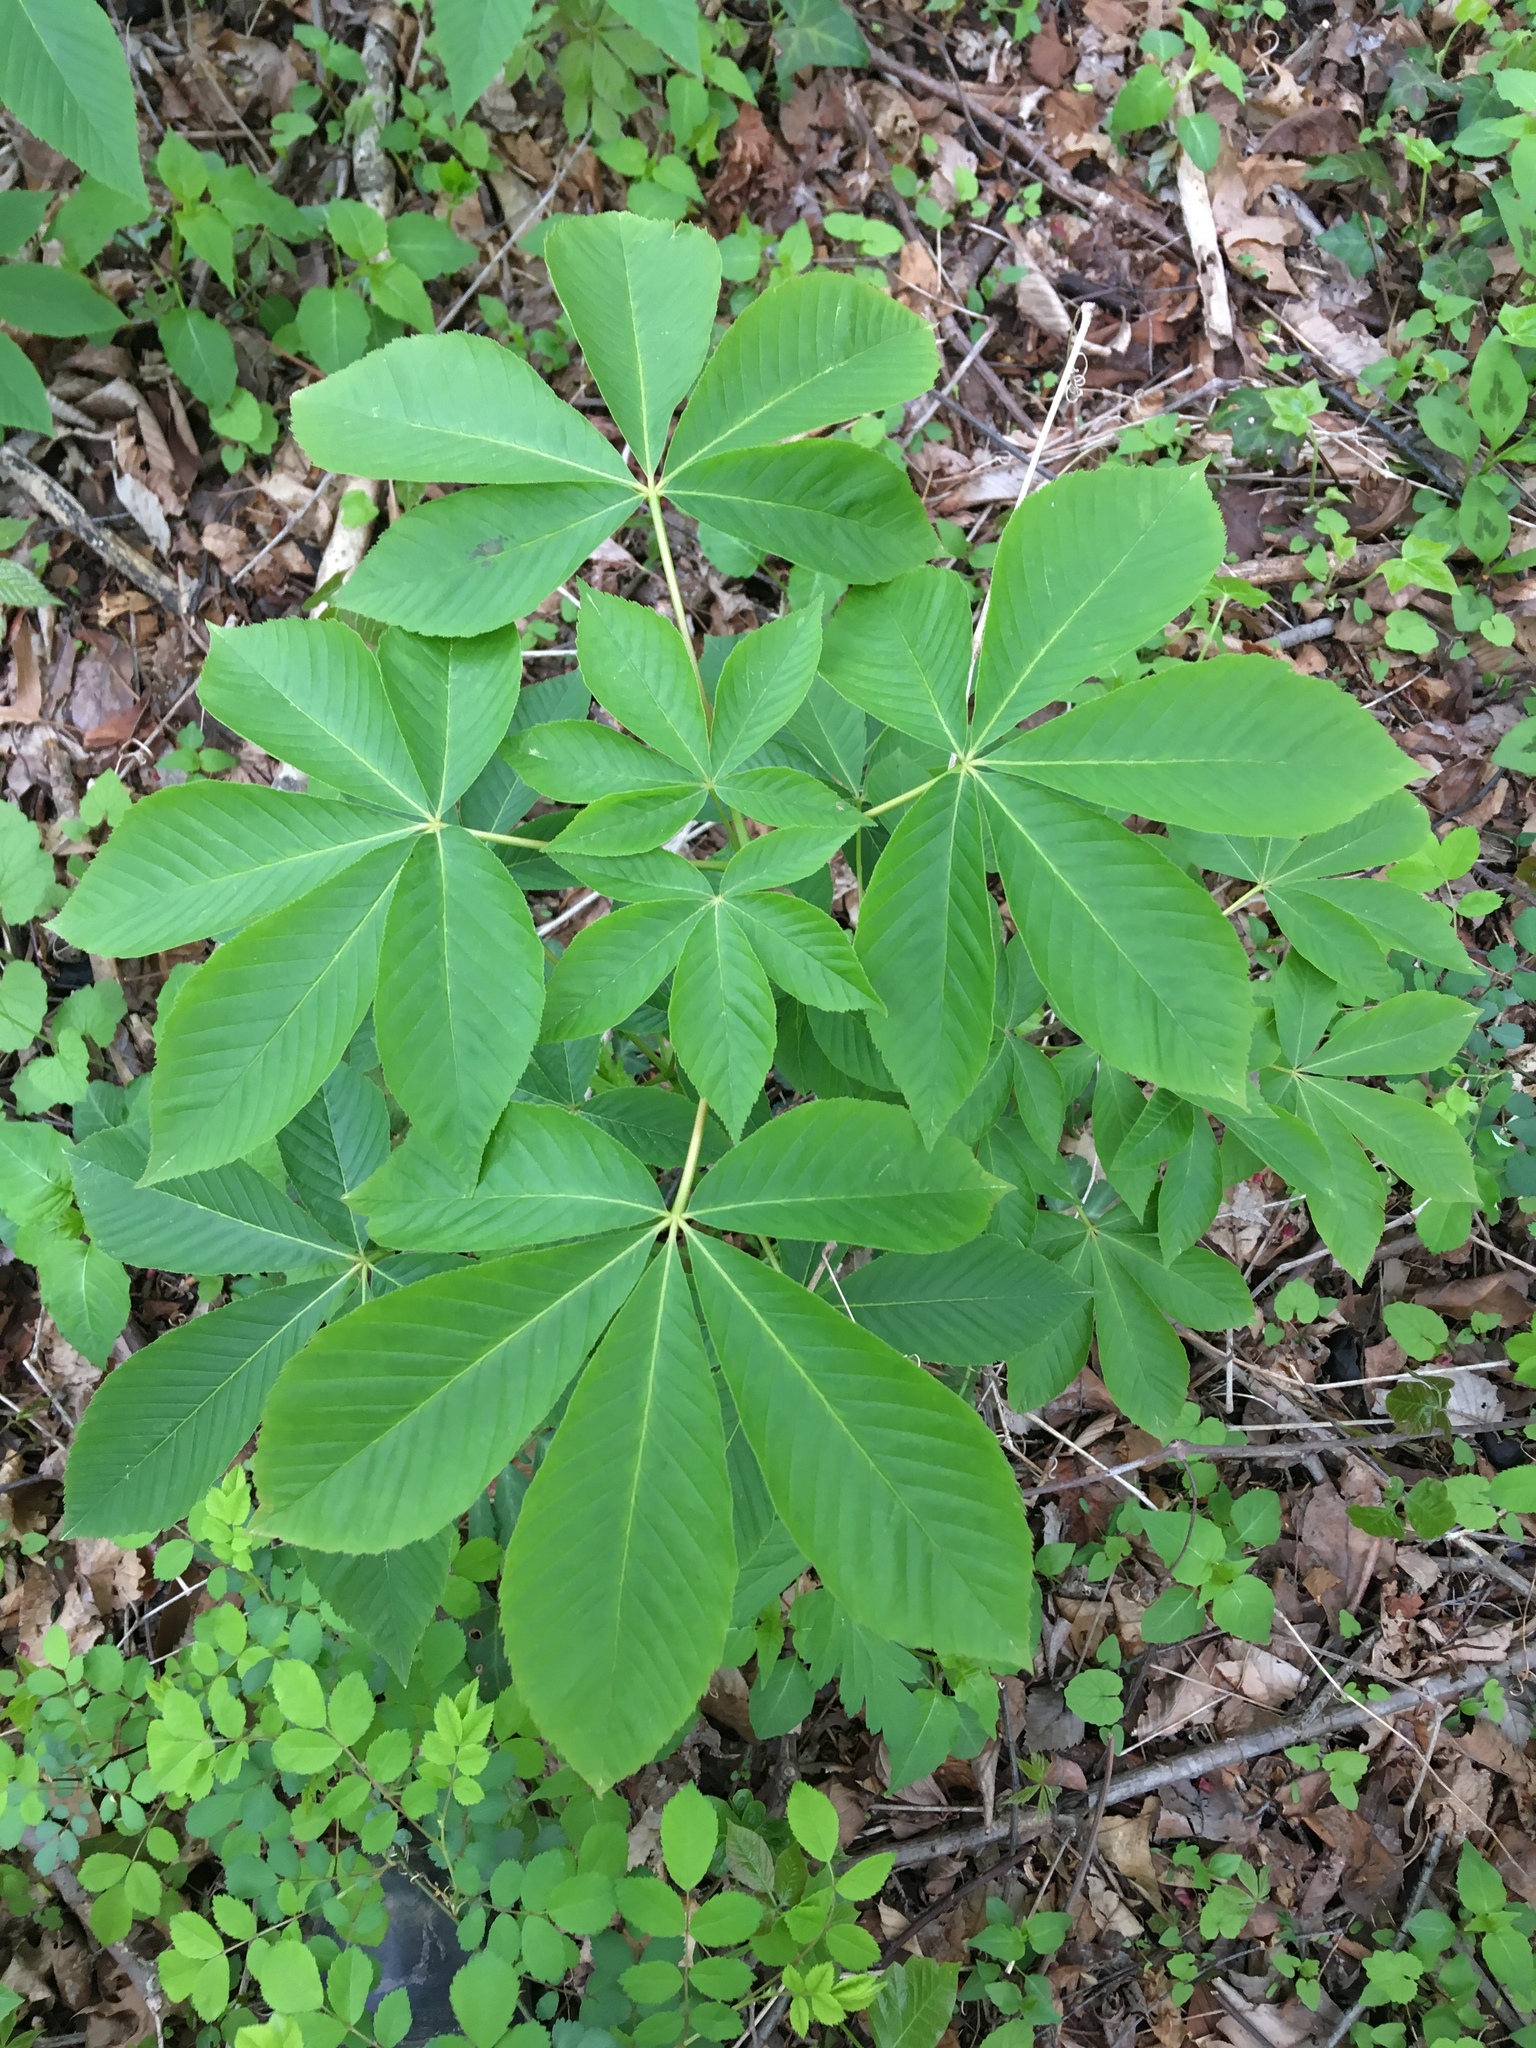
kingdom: Plantae
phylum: Tracheophyta
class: Magnoliopsida
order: Sapindales
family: Sapindaceae
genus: Aesculus
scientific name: Aesculus glabra
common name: Ohio buckeye
